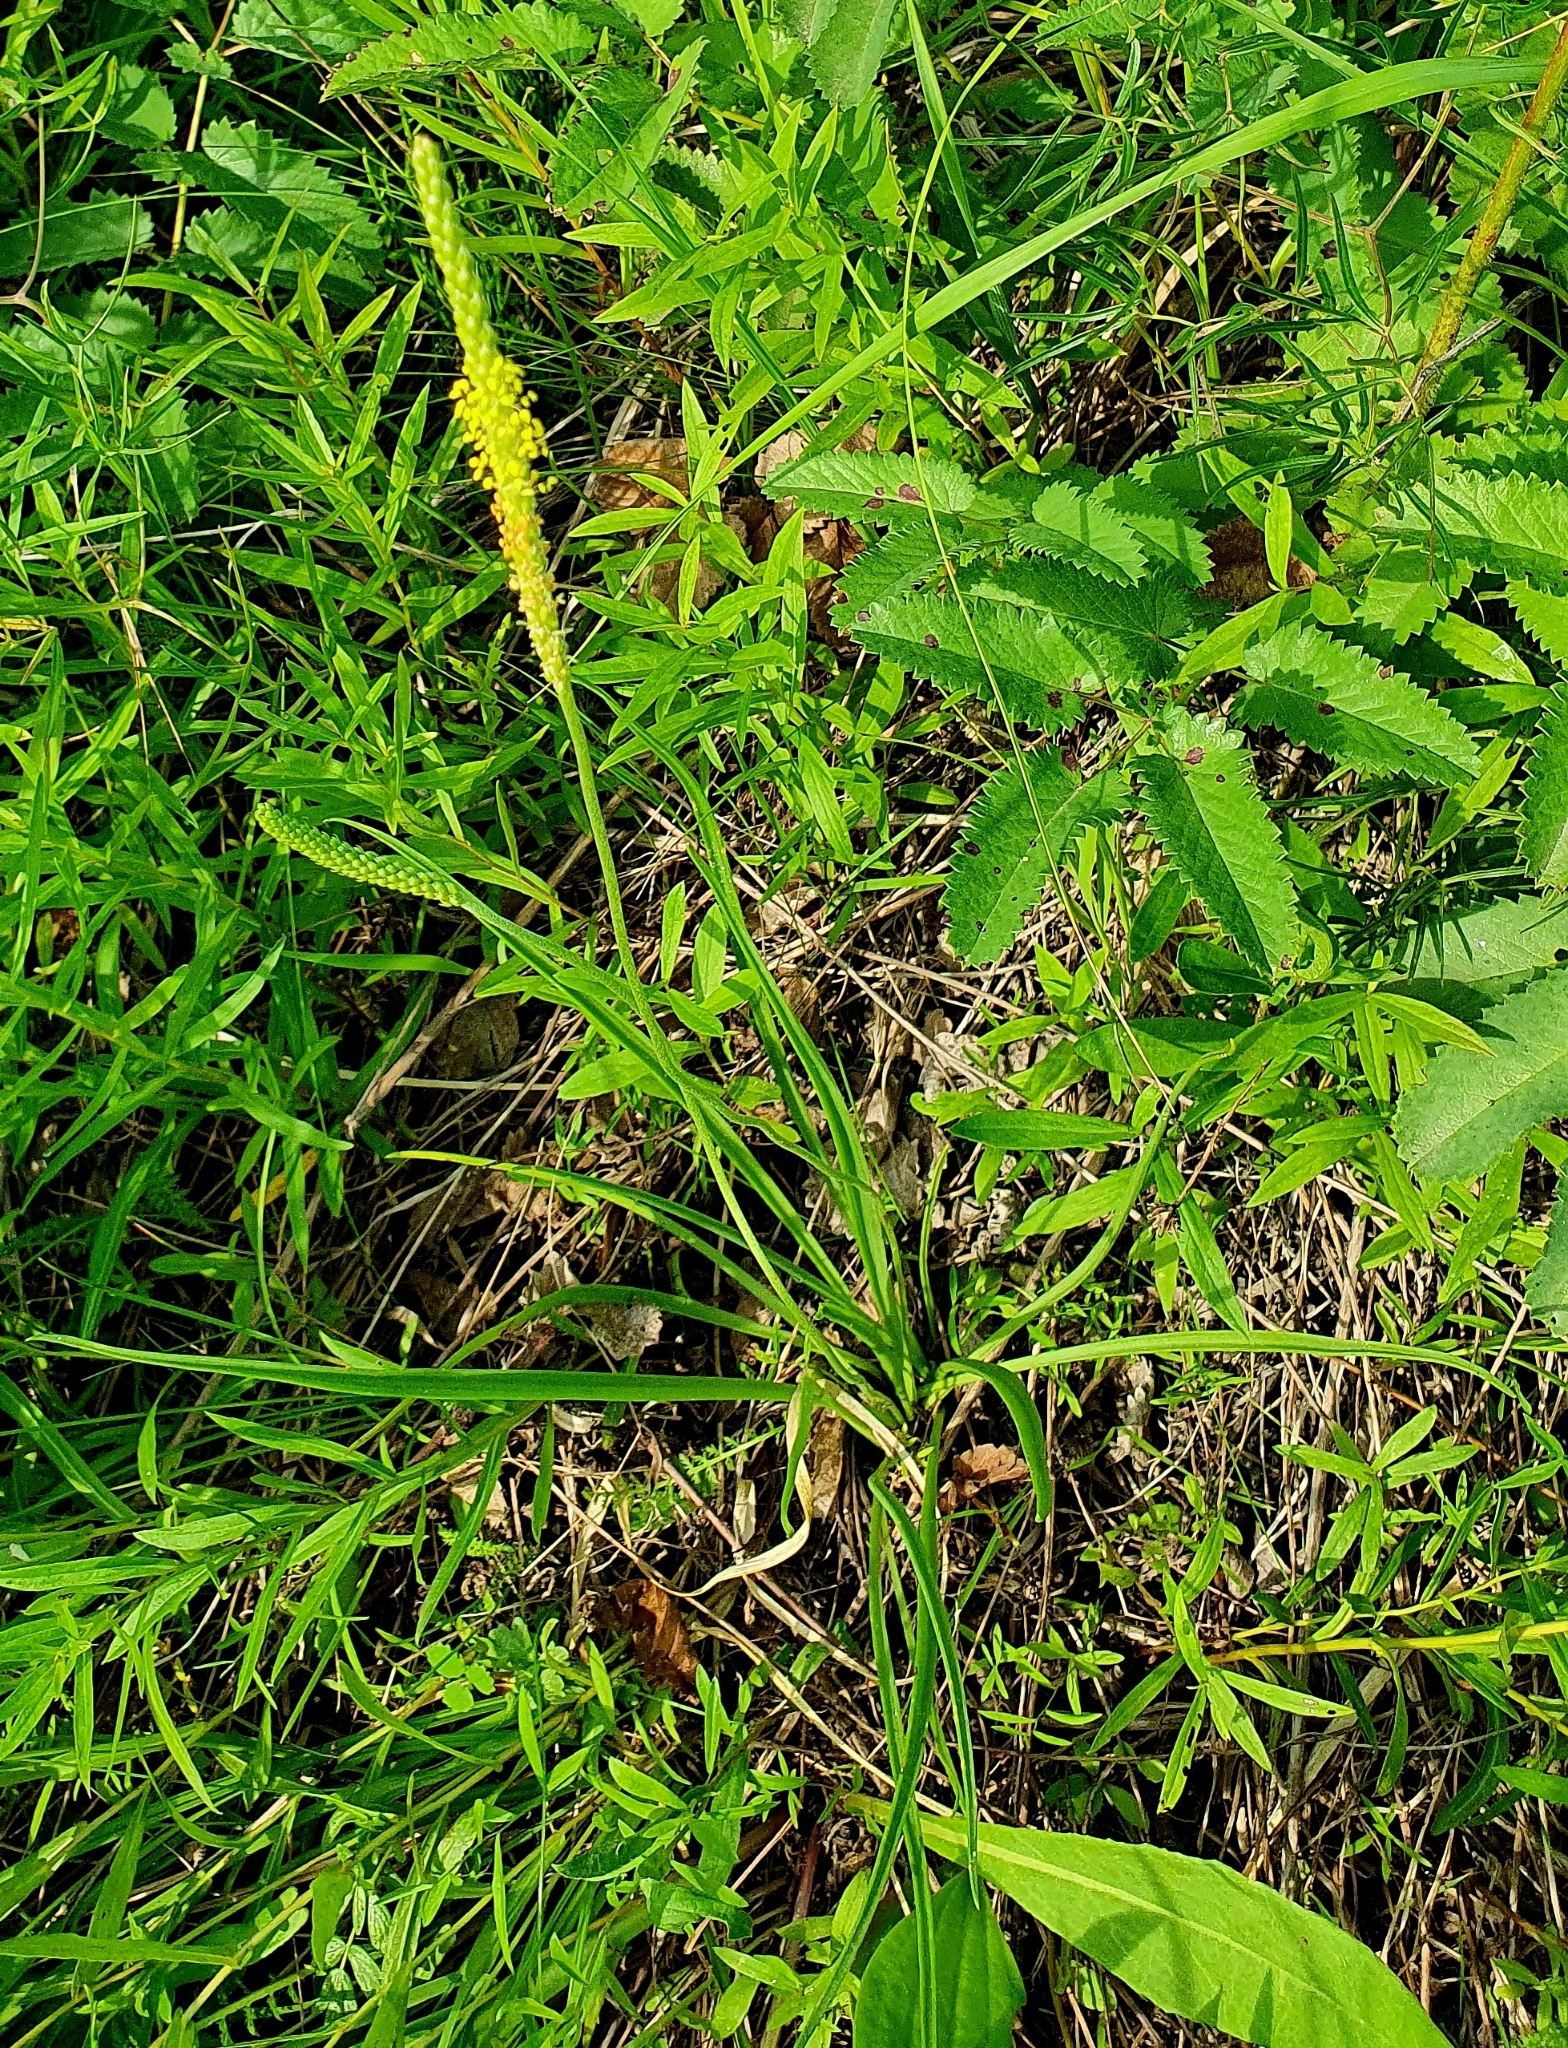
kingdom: Plantae
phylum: Tracheophyta
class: Magnoliopsida
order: Lamiales
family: Plantaginaceae
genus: Plantago
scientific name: Plantago salsa
